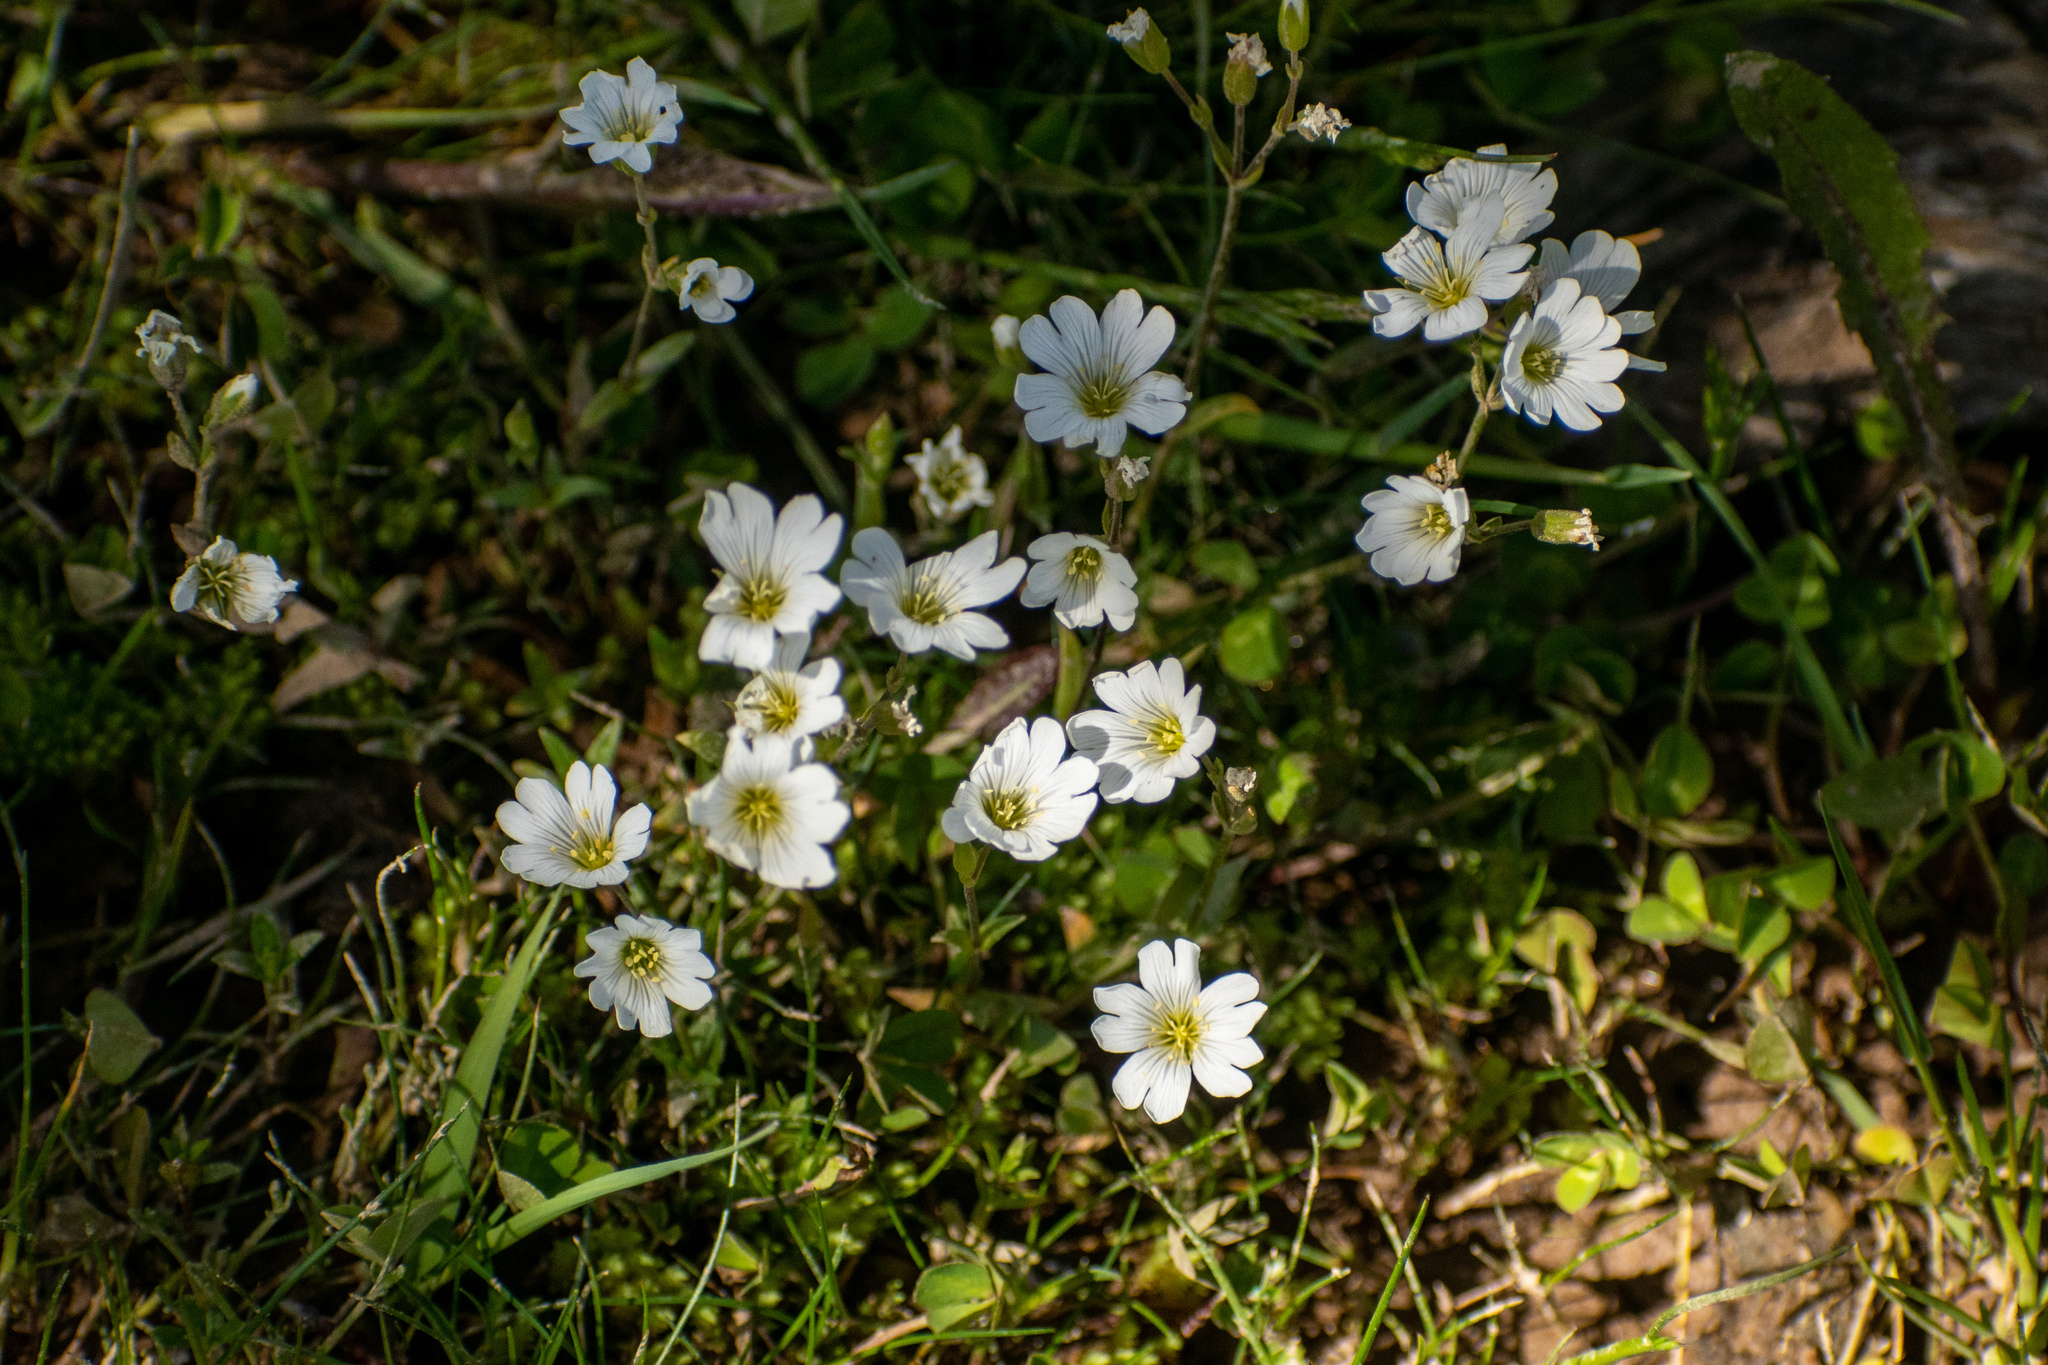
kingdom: Plantae
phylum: Tracheophyta
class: Magnoliopsida
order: Caryophyllales
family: Caryophyllaceae
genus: Cerastium
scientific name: Cerastium arvense
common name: Field mouse-ear
